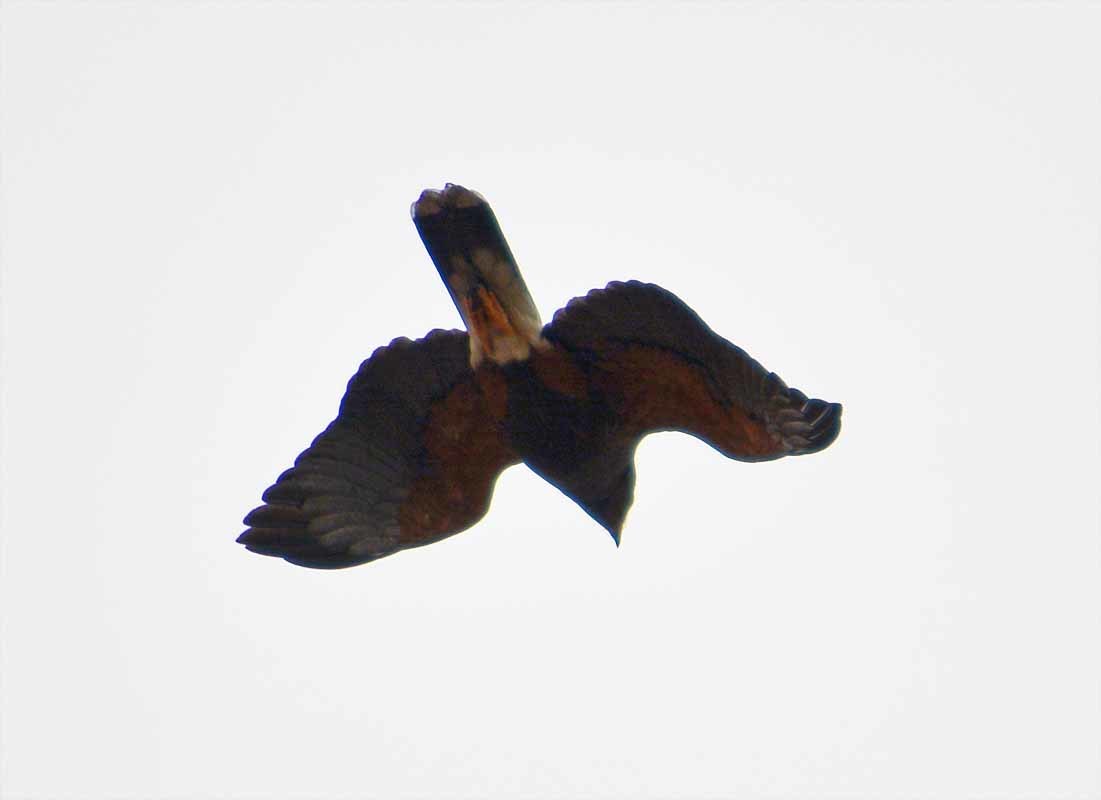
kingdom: Animalia
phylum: Chordata
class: Aves
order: Accipitriformes
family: Accipitridae
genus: Parabuteo
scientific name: Parabuteo unicinctus
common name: Harris's hawk
